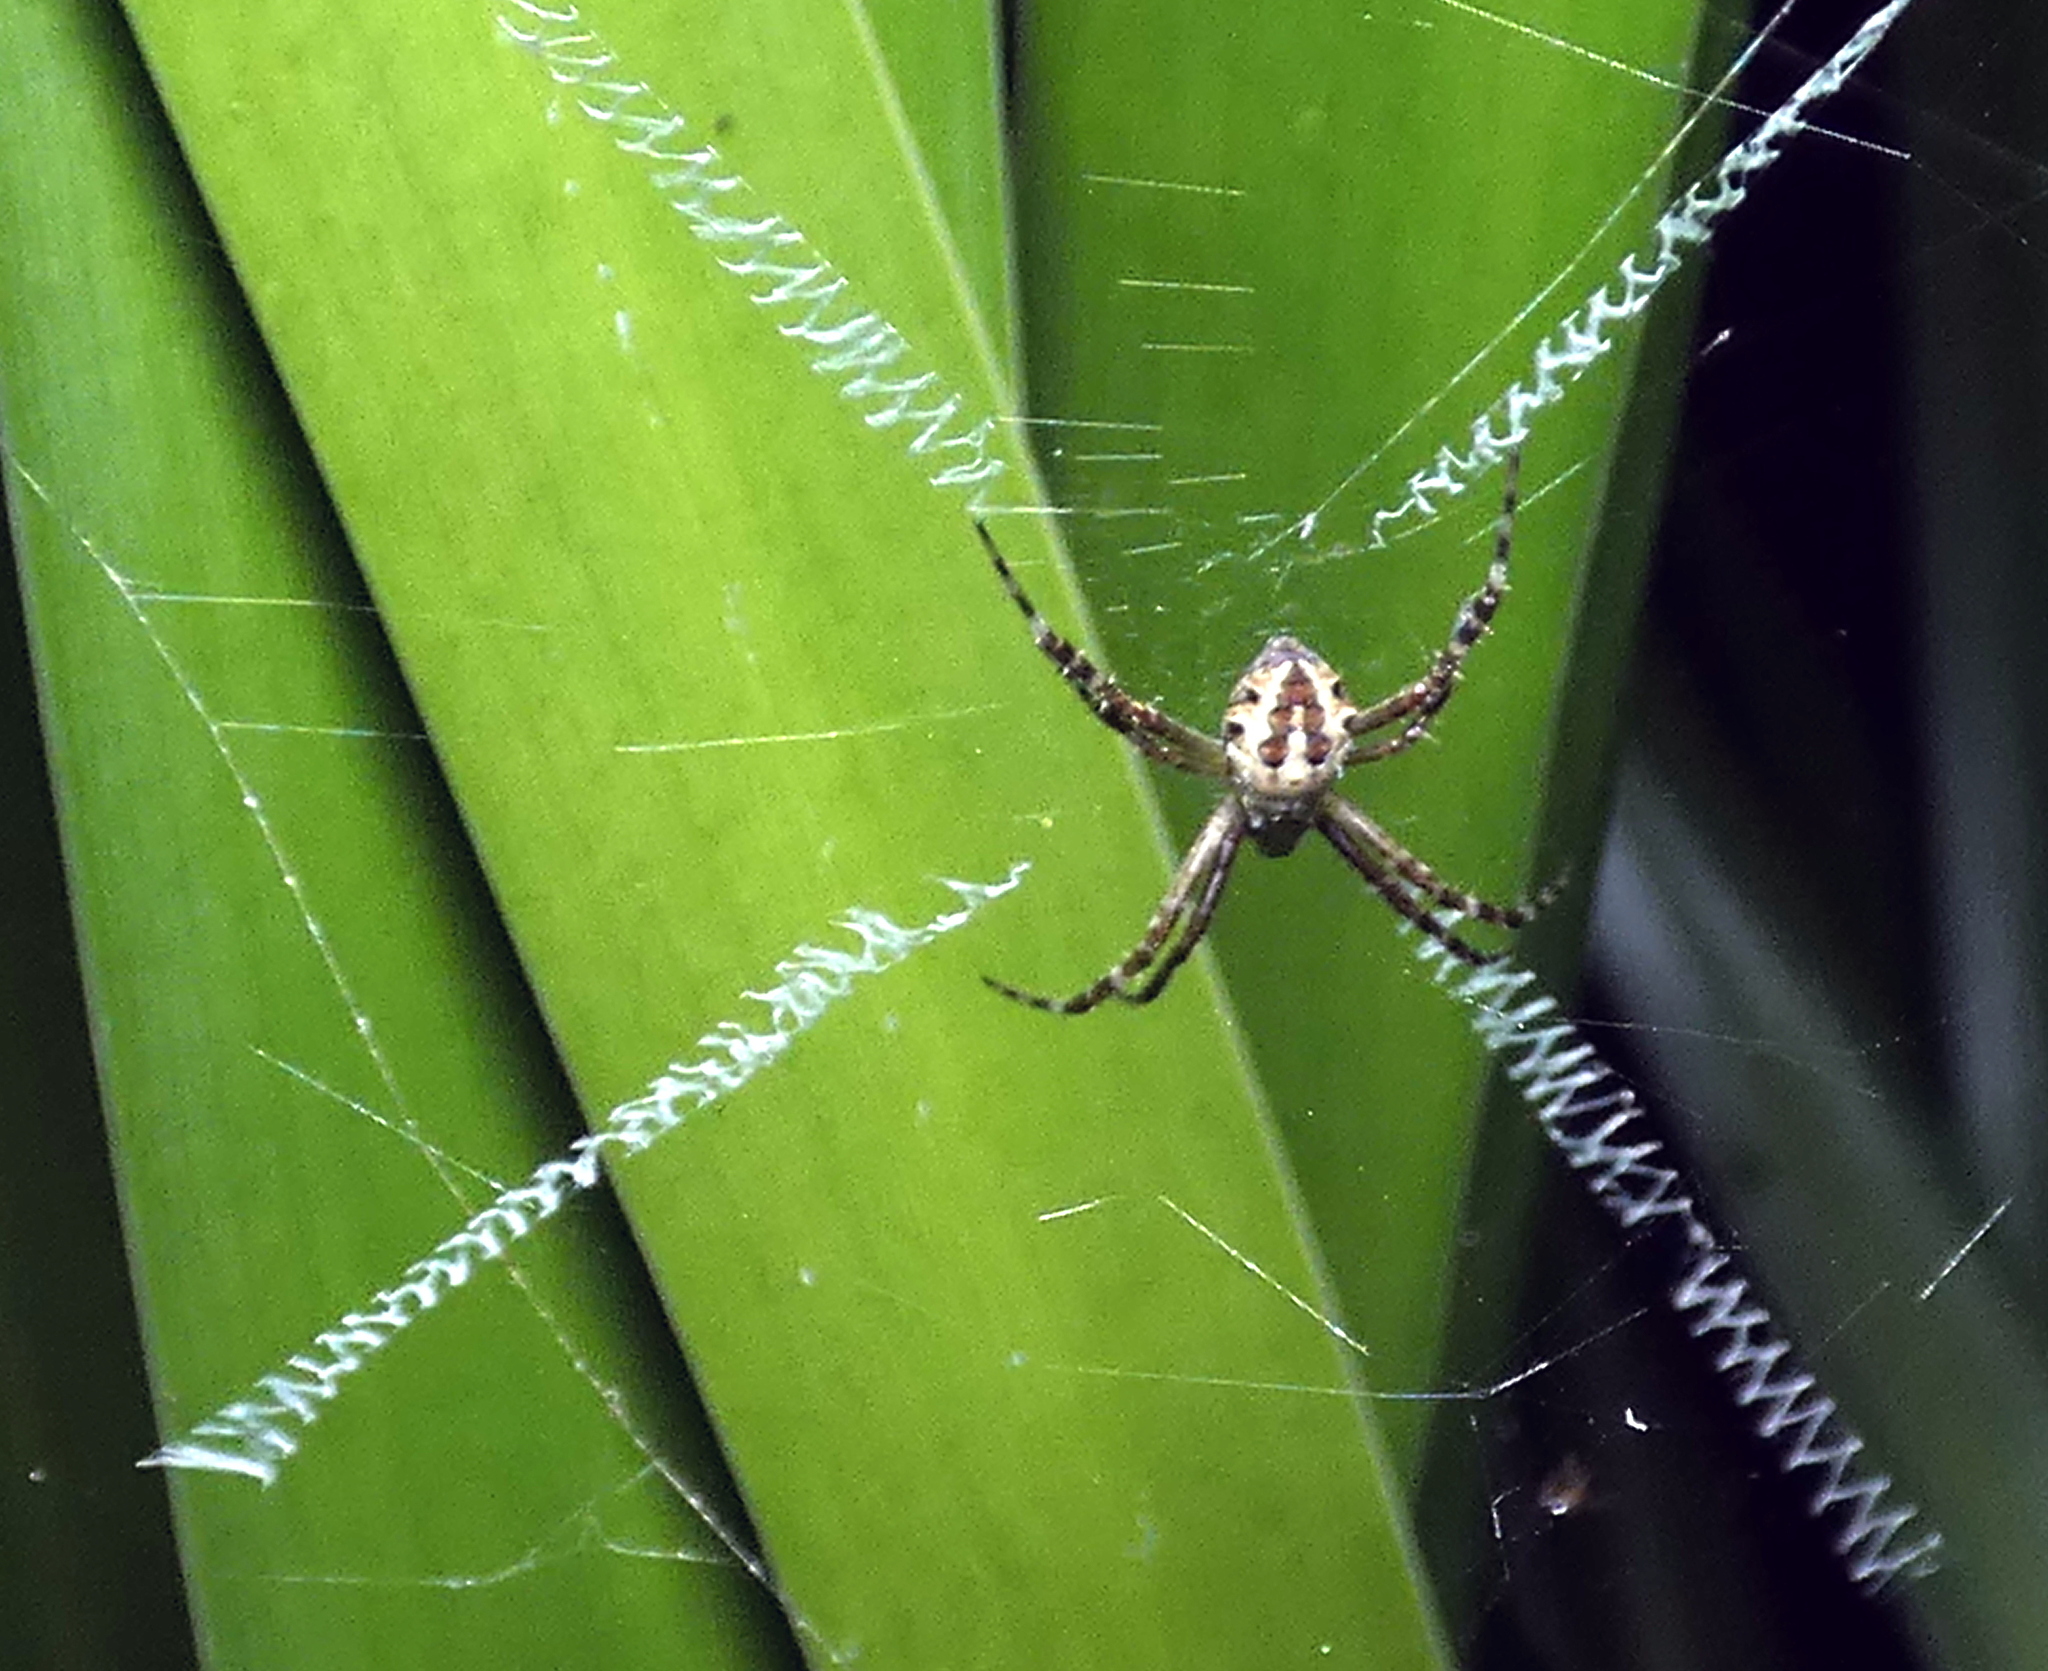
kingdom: Animalia
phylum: Arthropoda
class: Arachnida
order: Araneae
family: Araneidae
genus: Argiope
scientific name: Argiope argentata
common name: Orb weavers
